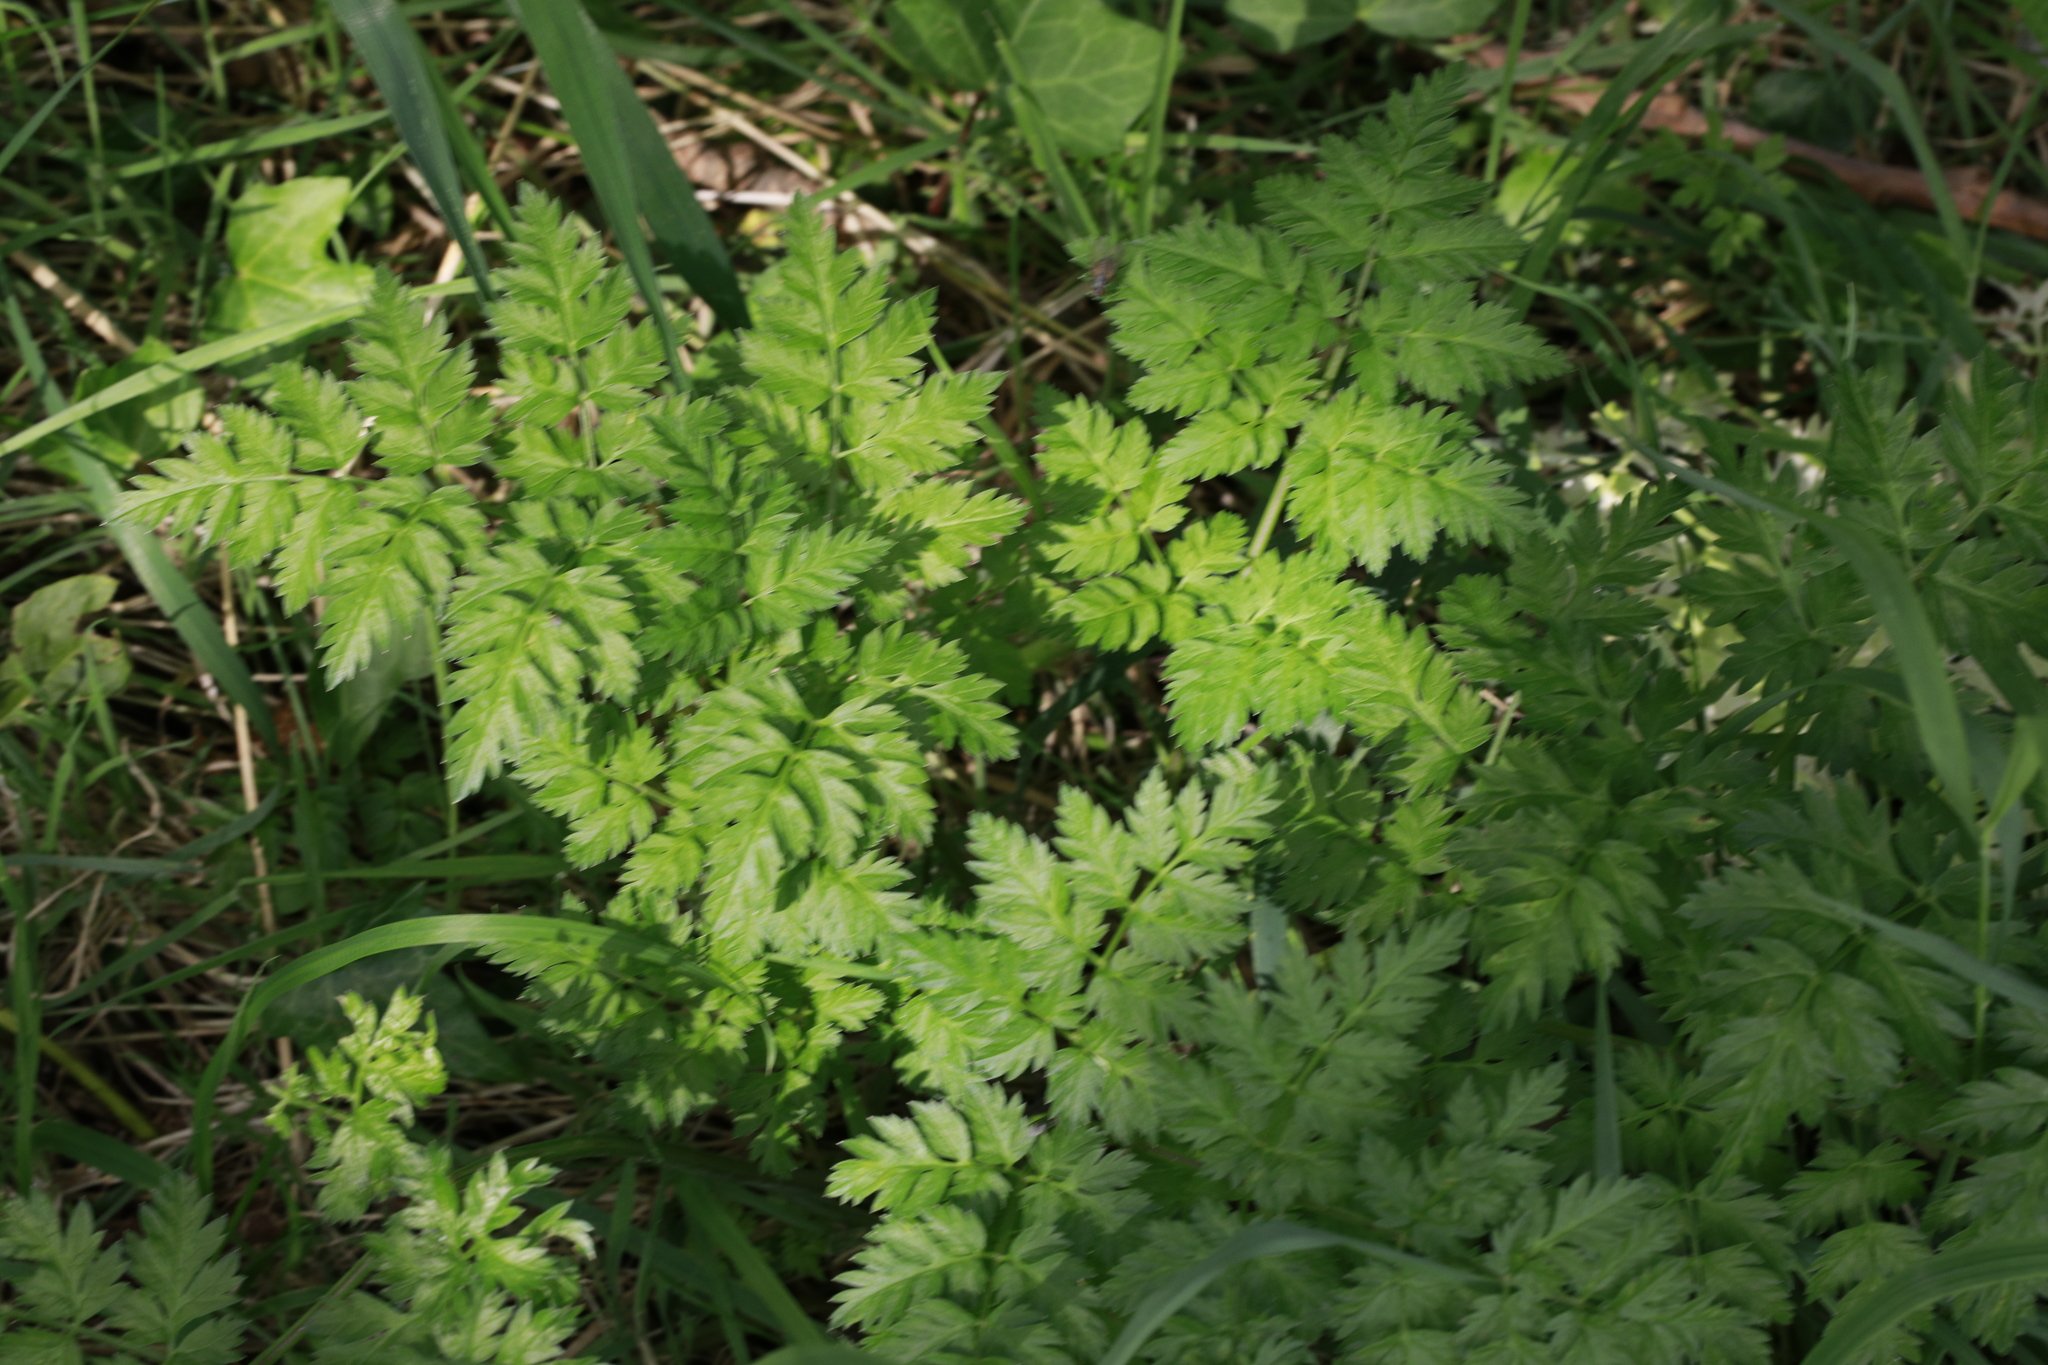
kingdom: Plantae
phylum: Tracheophyta
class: Magnoliopsida
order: Apiales
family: Apiaceae
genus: Anthriscus
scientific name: Anthriscus sylvestris
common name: Cow parsley
